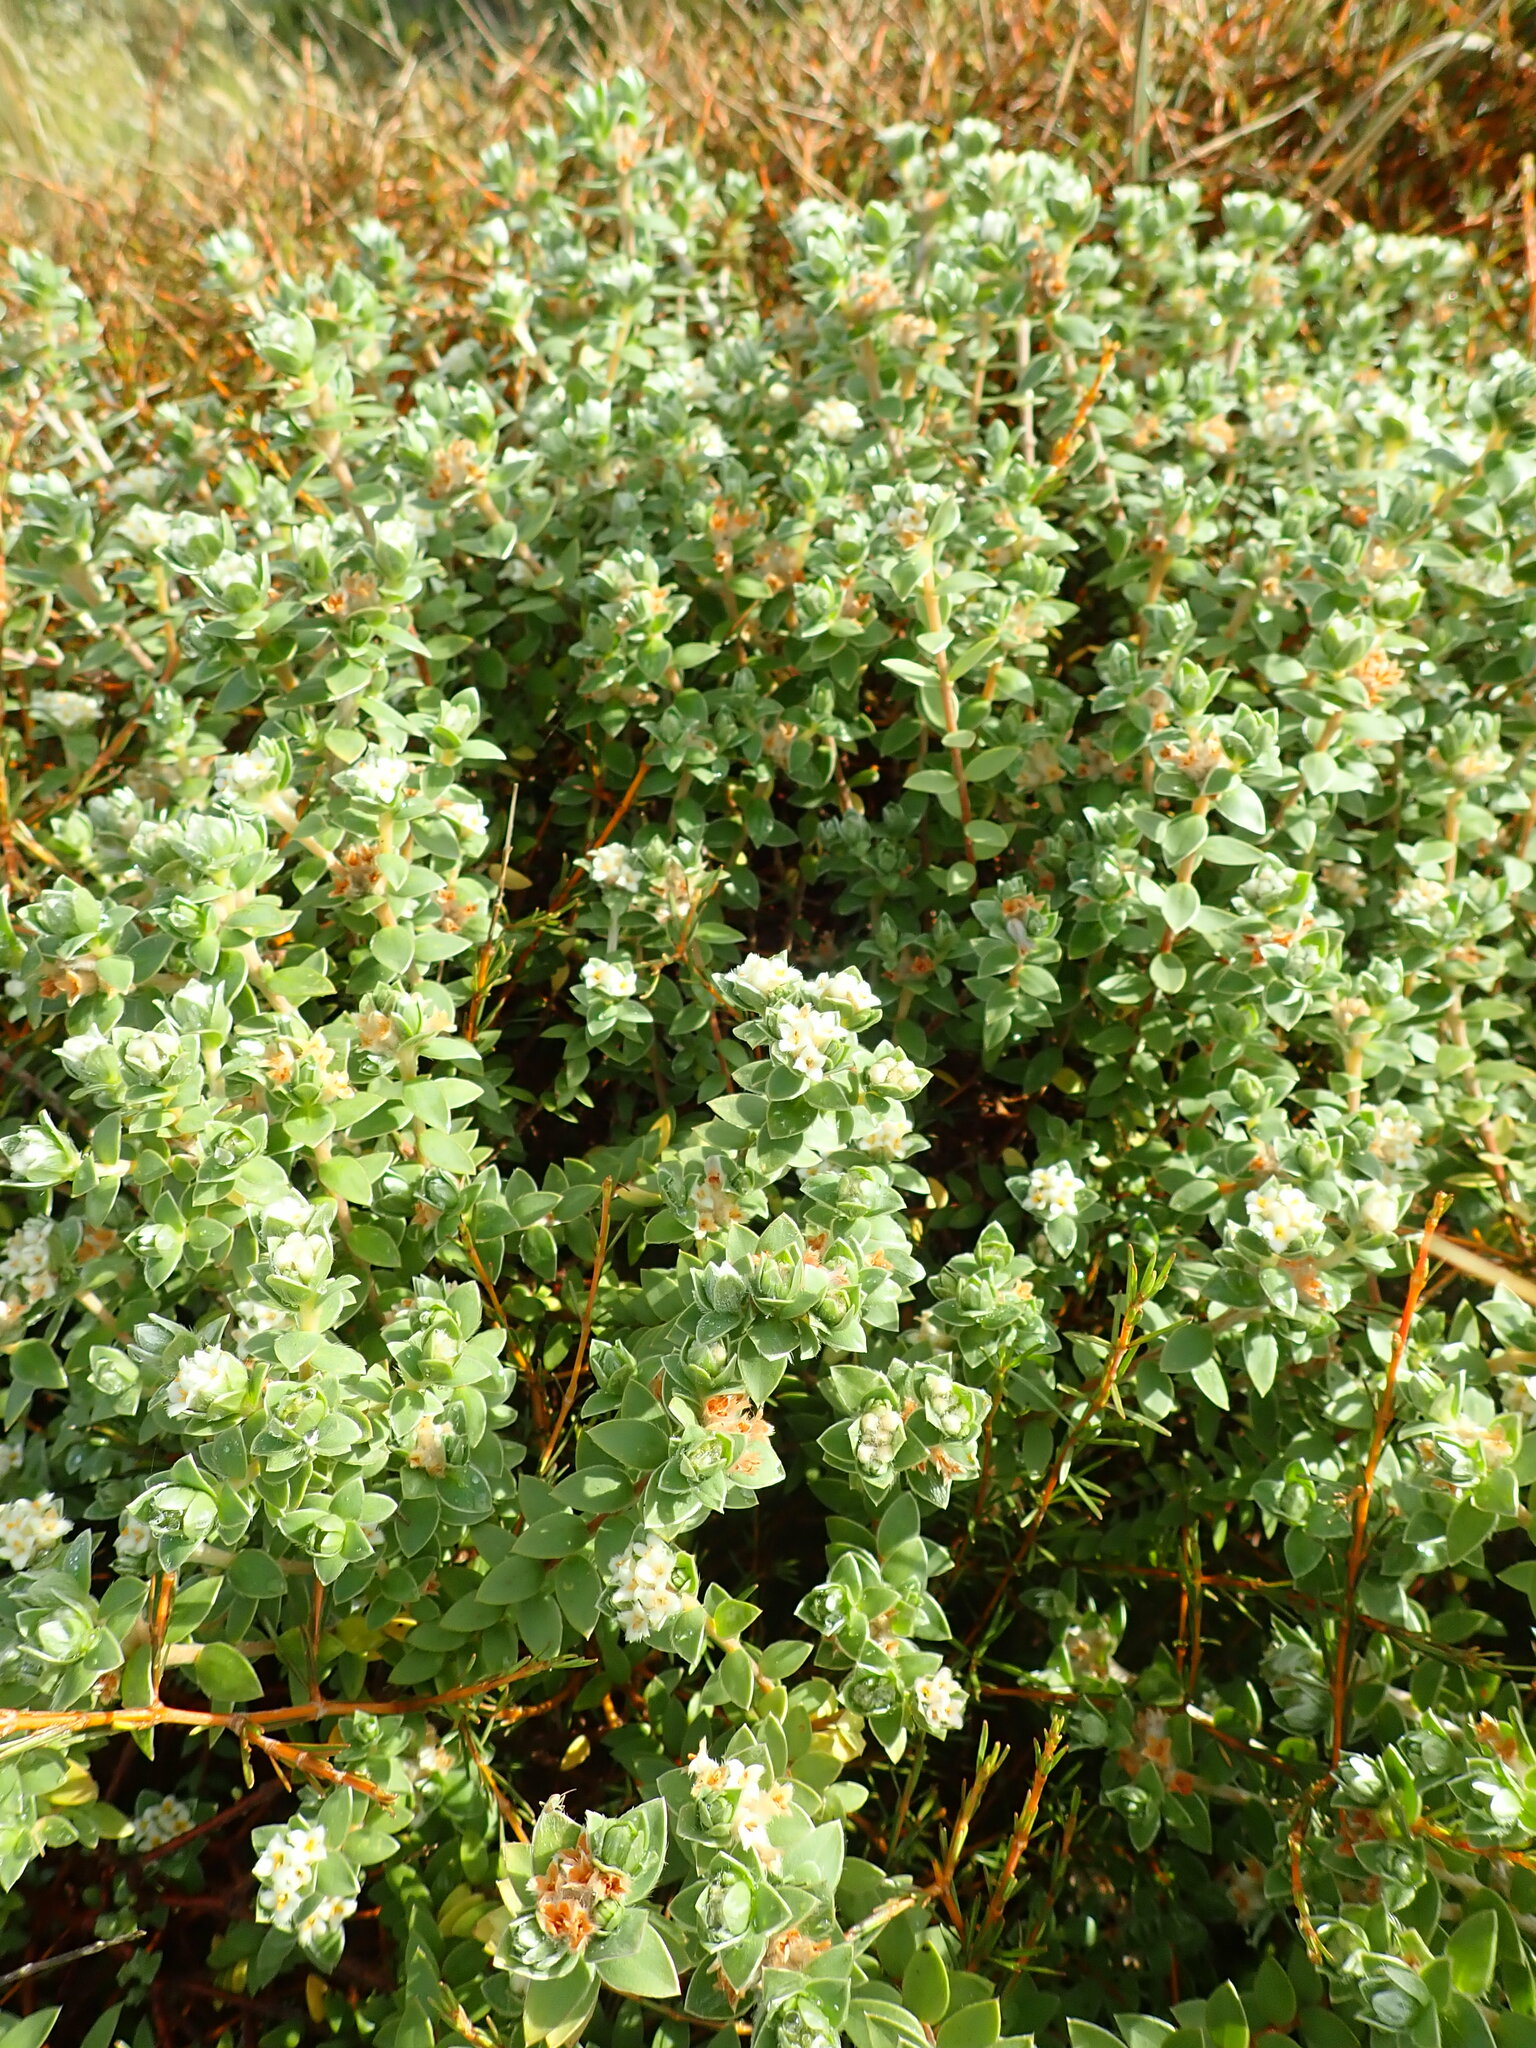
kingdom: Plantae
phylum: Tracheophyta
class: Magnoliopsida
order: Malvales
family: Thymelaeaceae
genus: Pimelea
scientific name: Pimelea villosa
